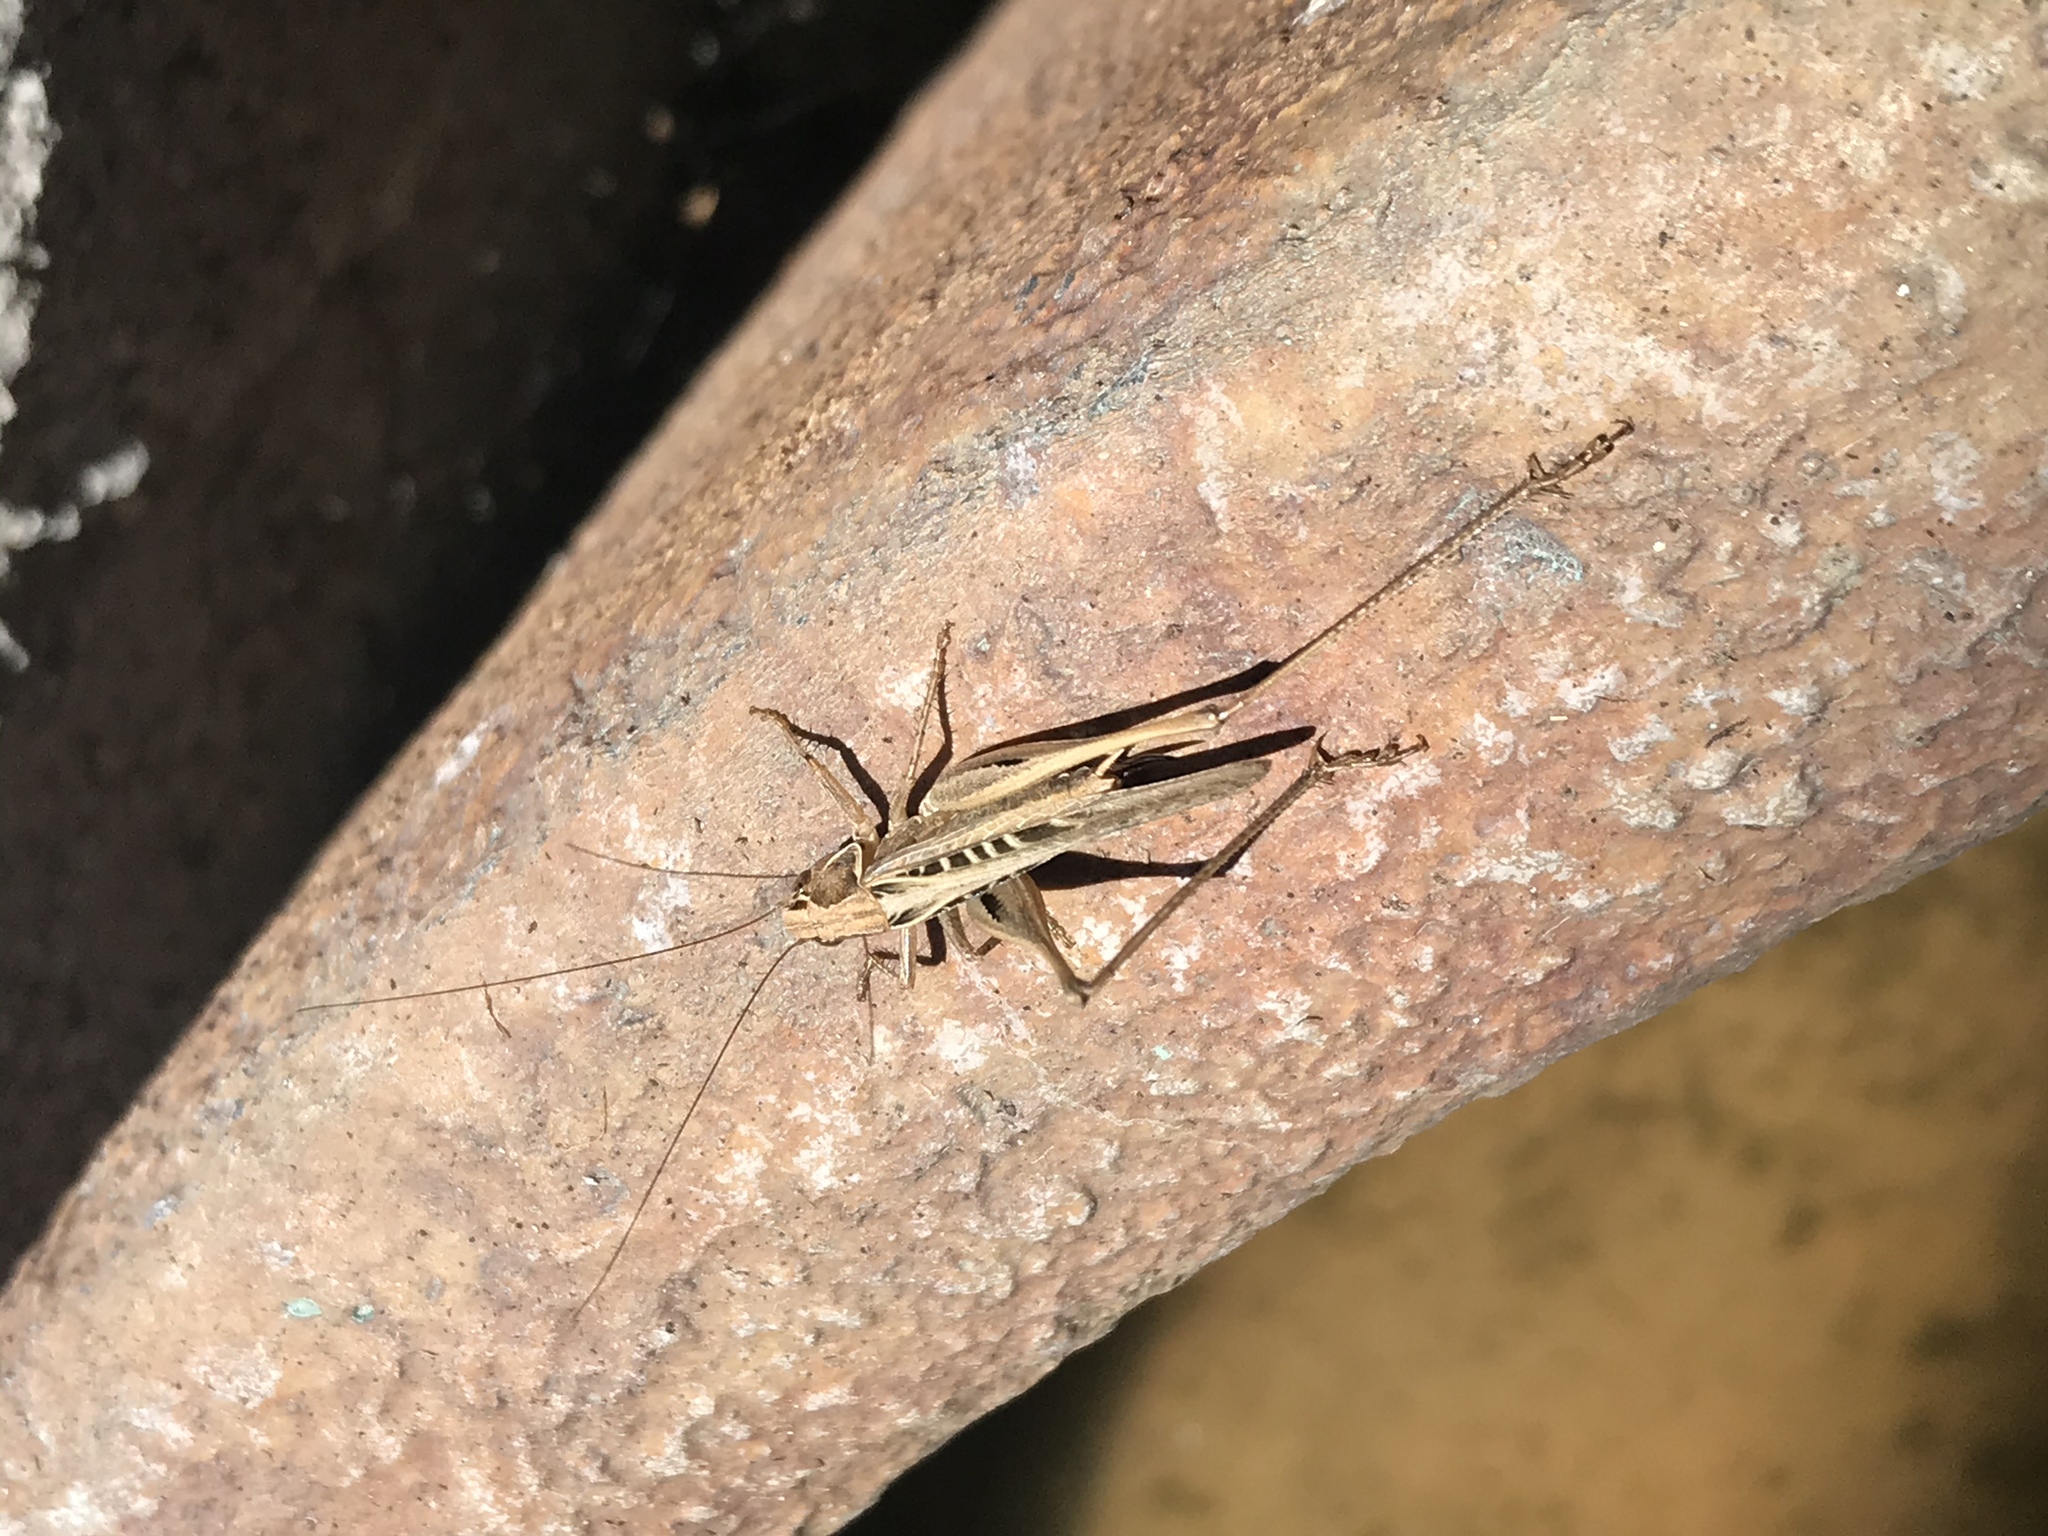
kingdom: Animalia
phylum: Arthropoda
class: Insecta
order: Orthoptera
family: Tettigoniidae
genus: Tessellana
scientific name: Tessellana tessellata
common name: Grasshopper
